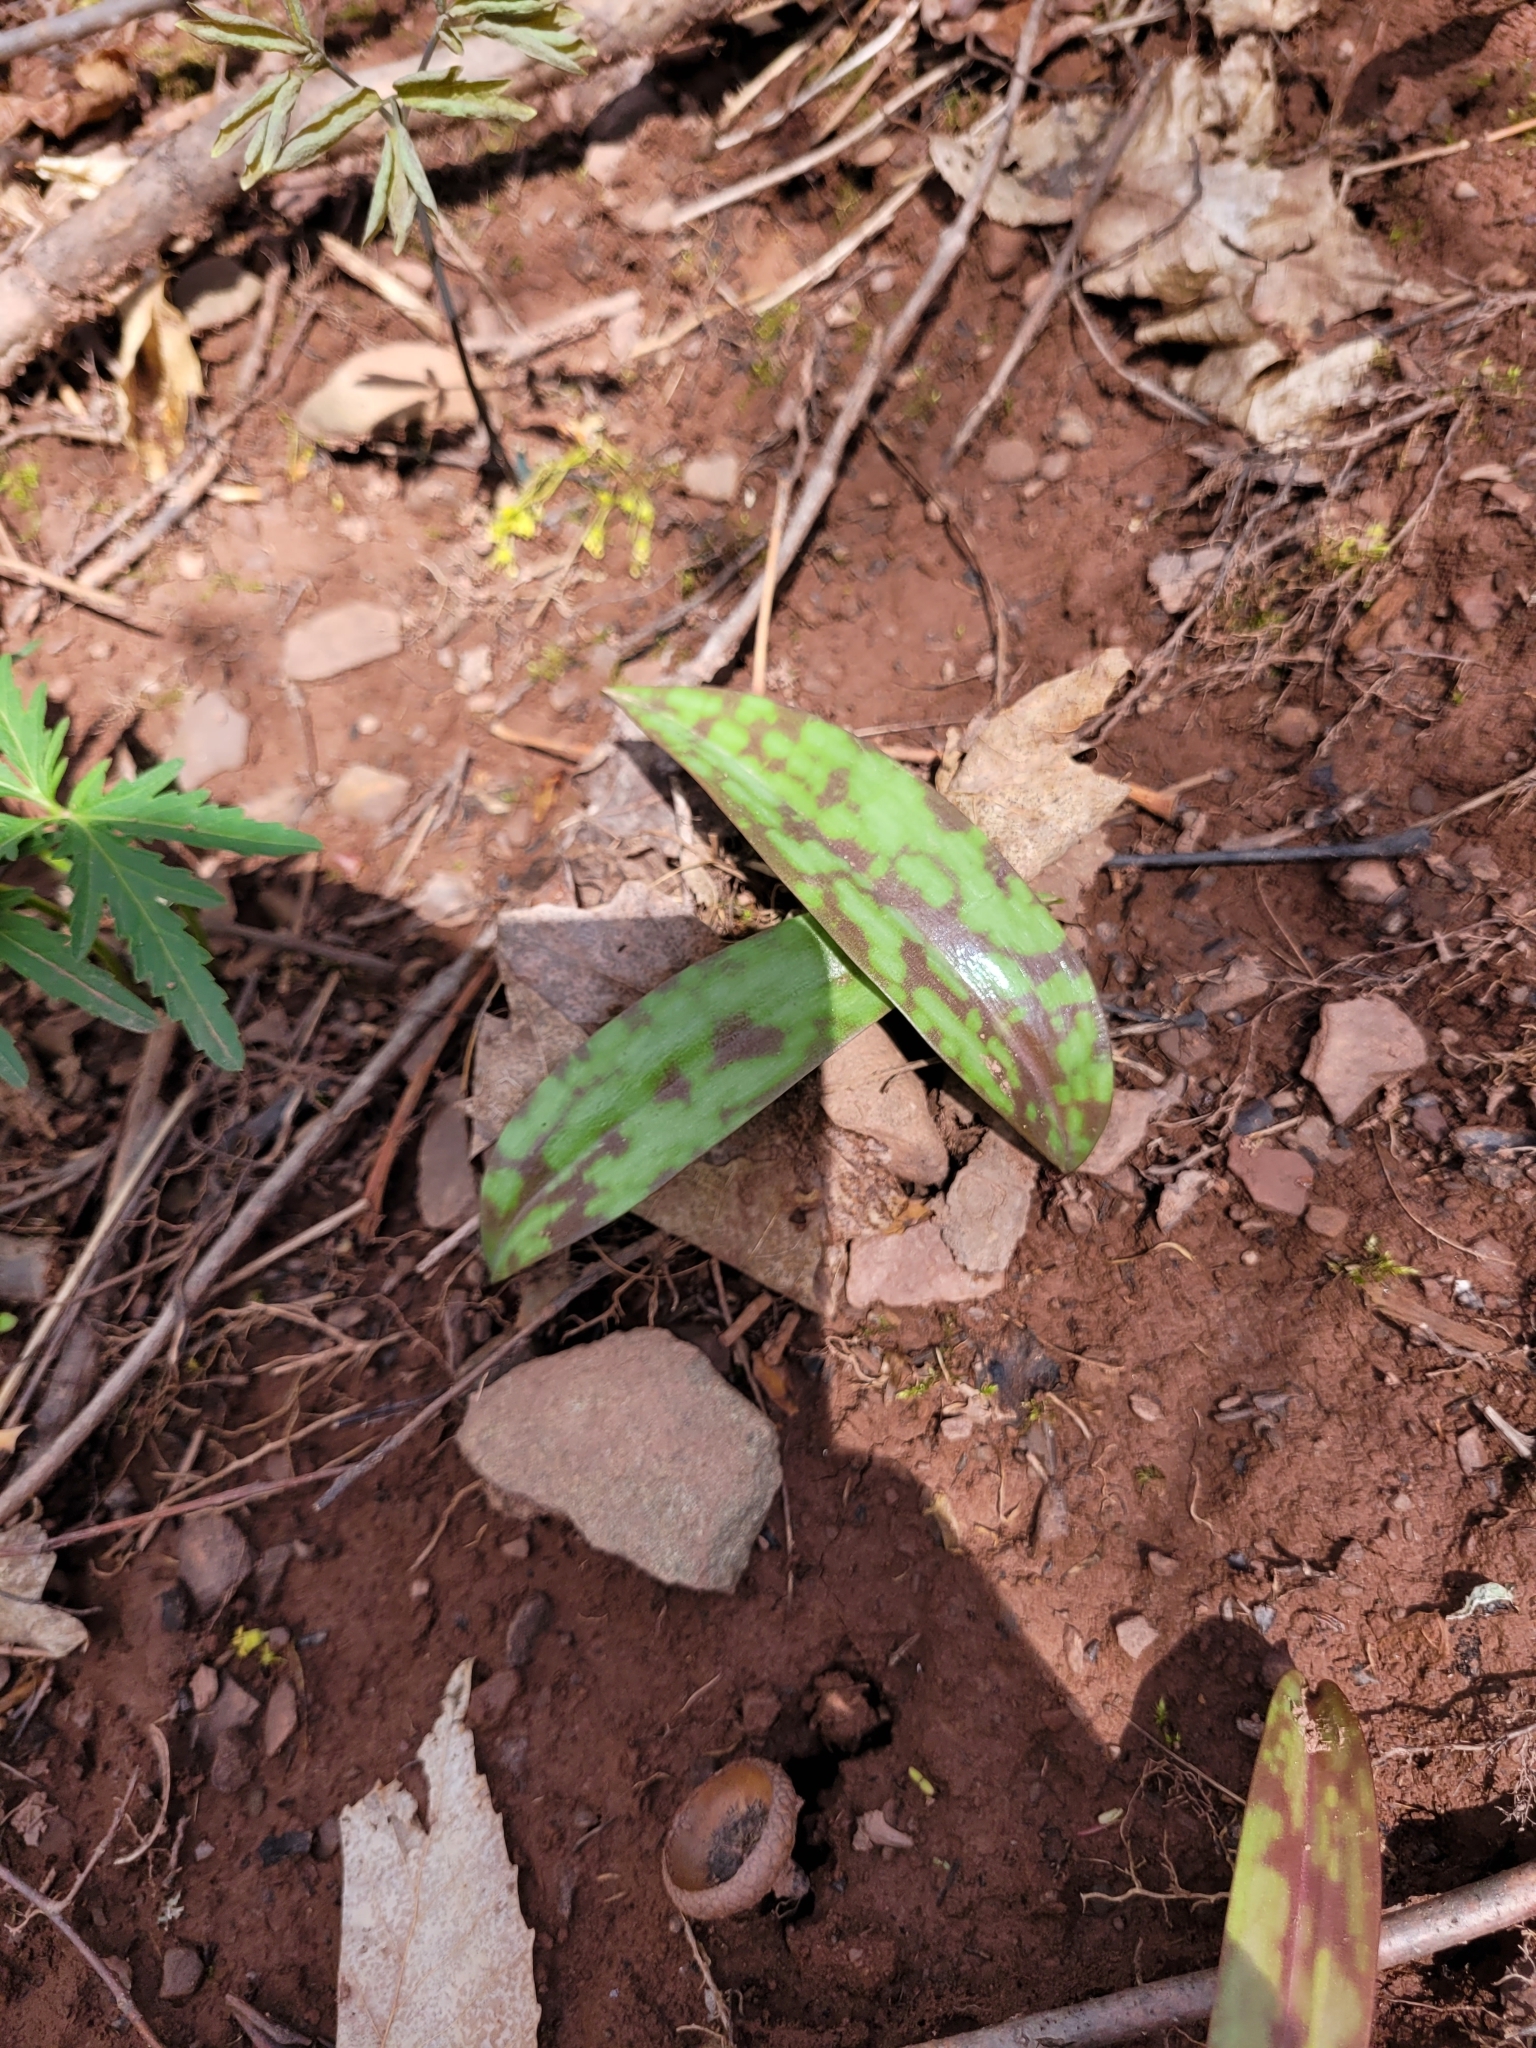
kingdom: Plantae
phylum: Tracheophyta
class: Liliopsida
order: Liliales
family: Liliaceae
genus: Erythronium
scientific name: Erythronium americanum
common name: Yellow adder's-tongue
